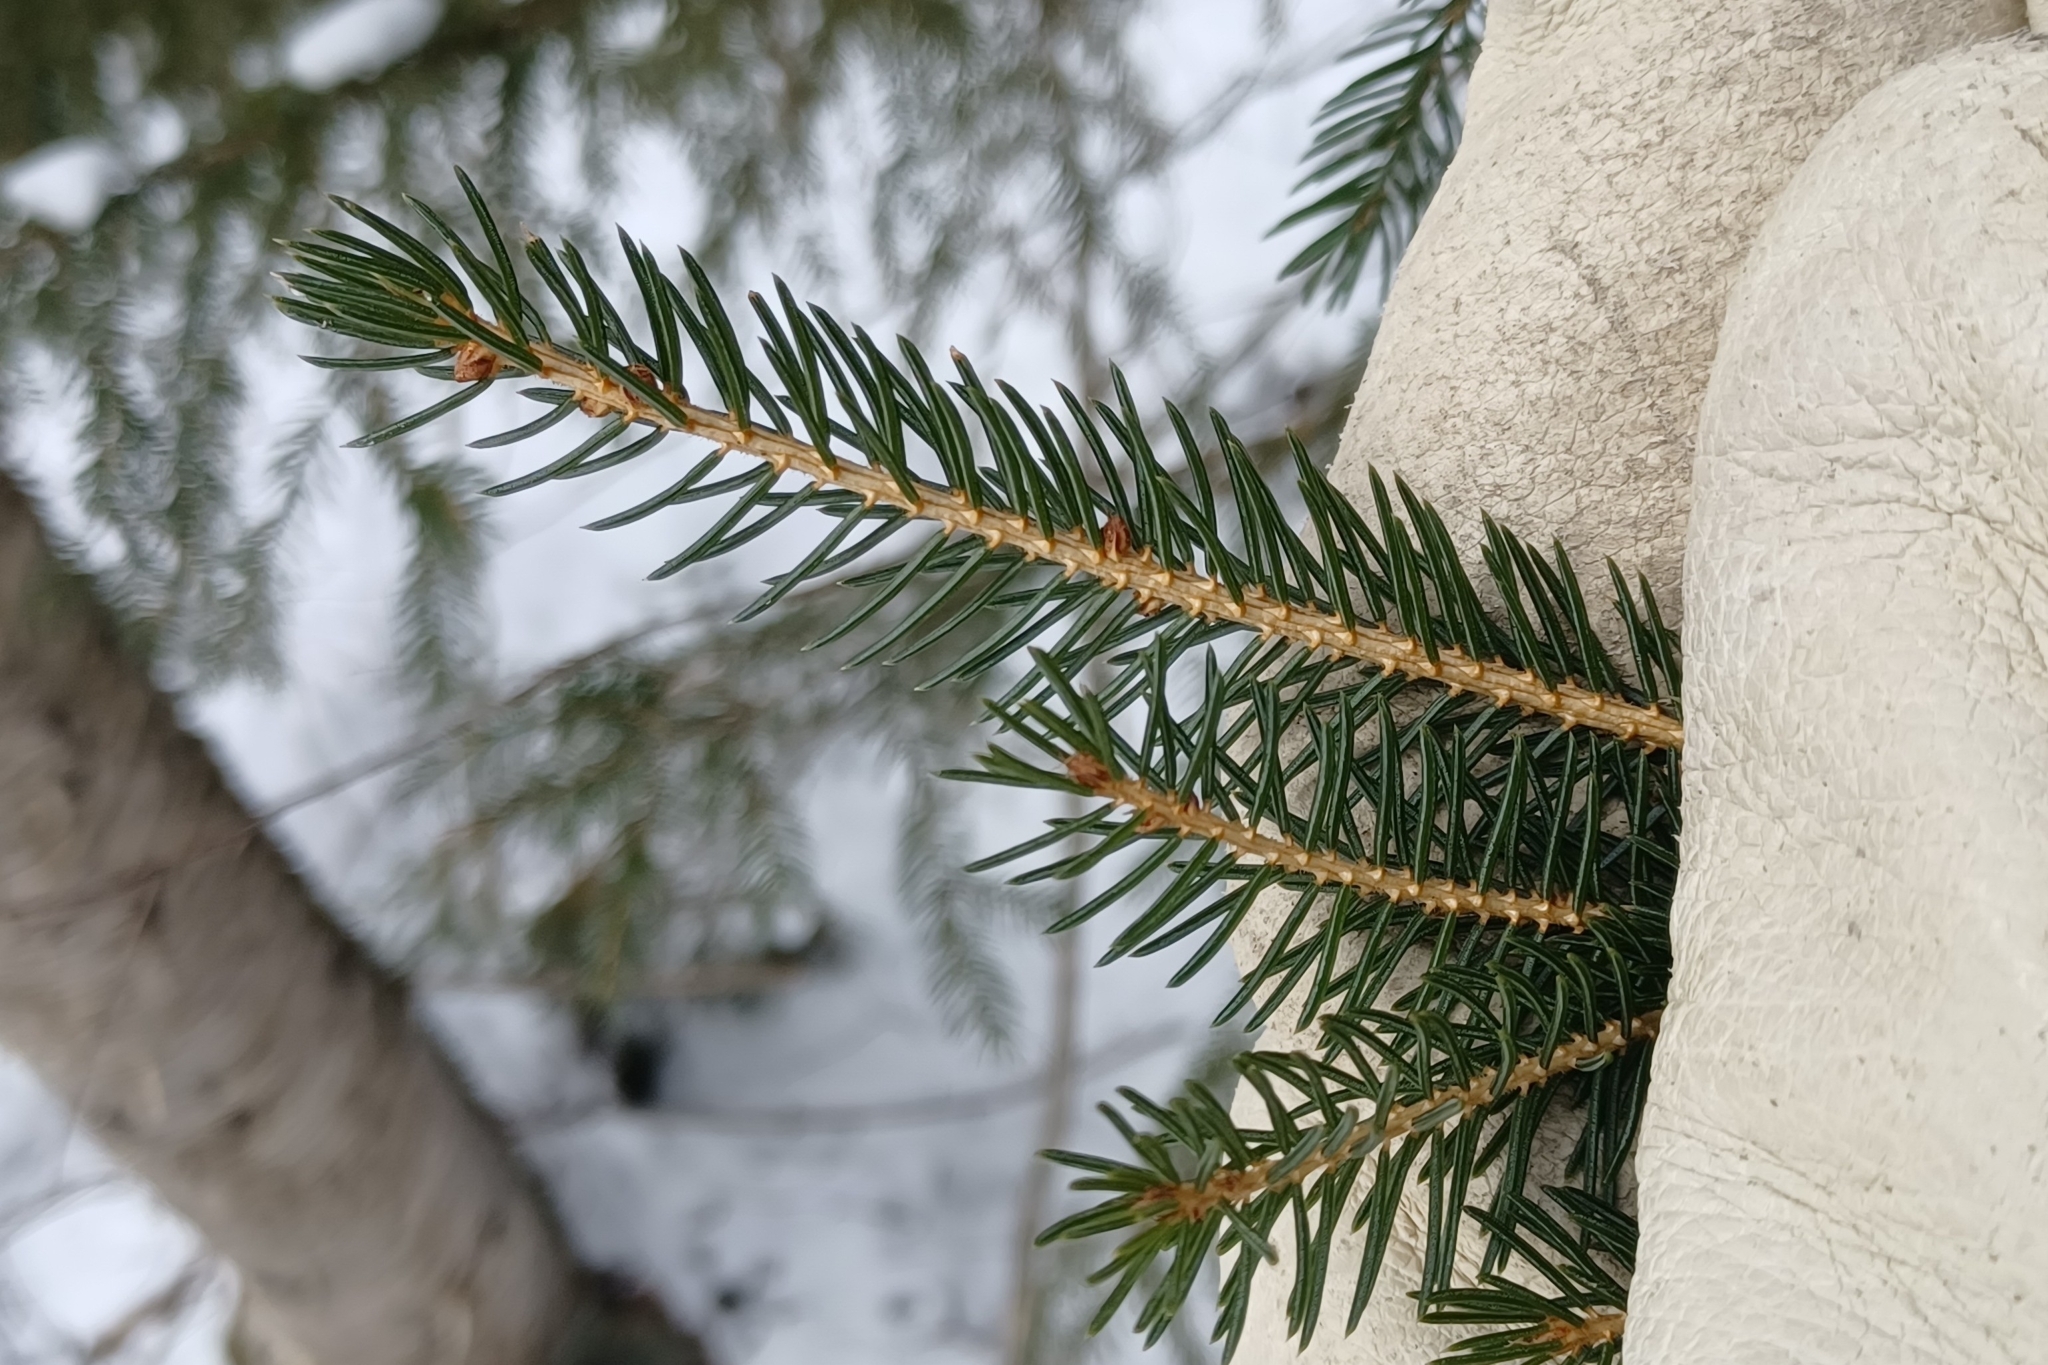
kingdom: Plantae
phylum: Tracheophyta
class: Pinopsida
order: Pinales
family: Pinaceae
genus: Picea
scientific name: Picea rubens
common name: Red spruce
